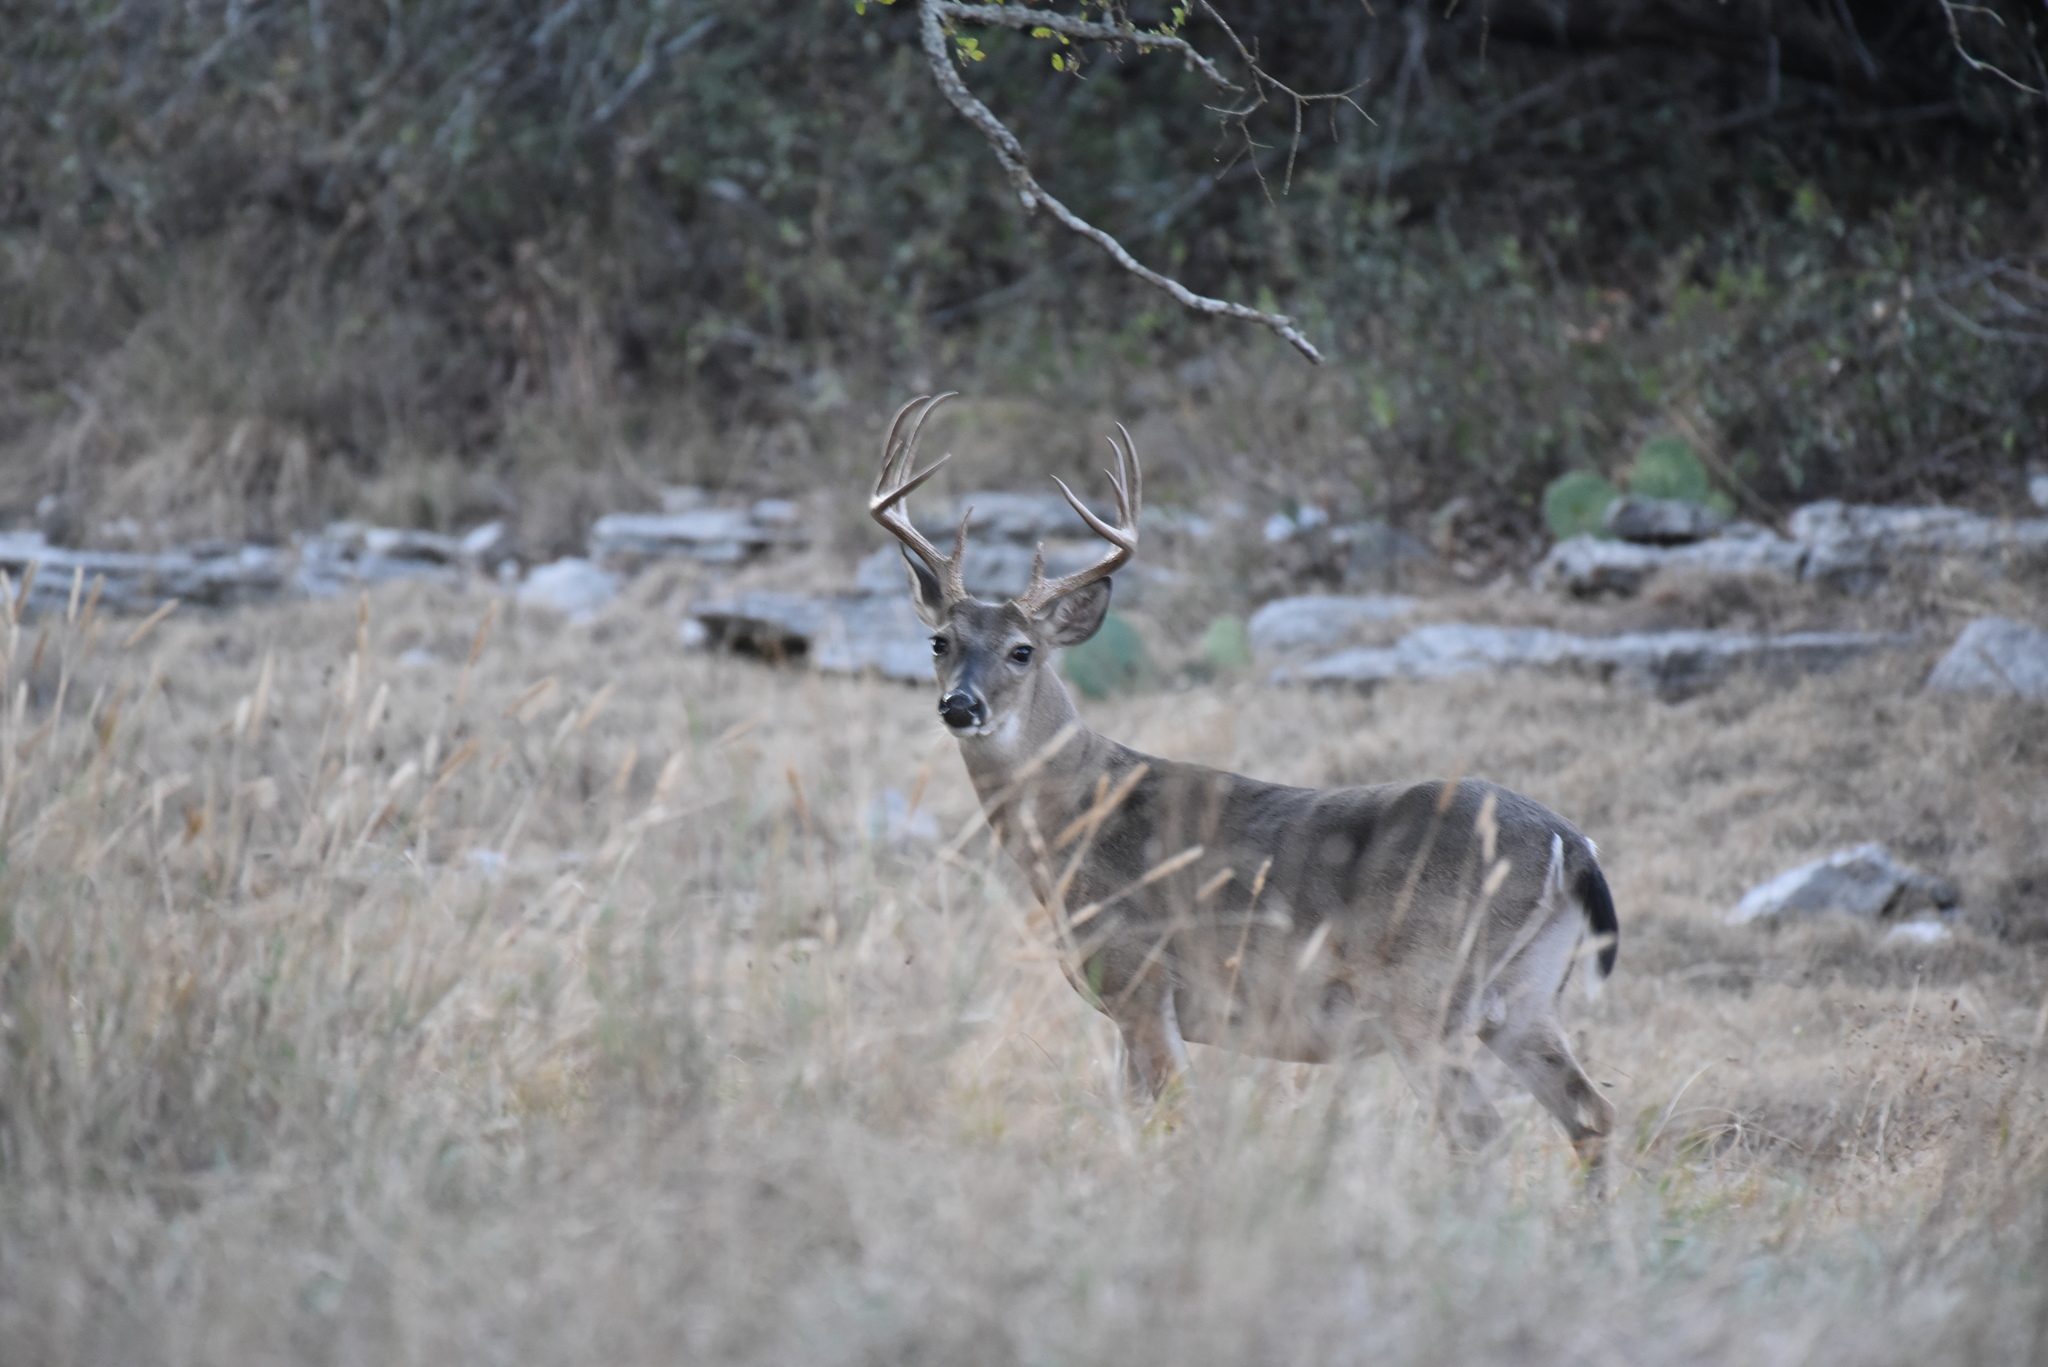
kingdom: Animalia
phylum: Chordata
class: Mammalia
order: Artiodactyla
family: Cervidae
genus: Odocoileus
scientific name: Odocoileus virginianus
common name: White-tailed deer
